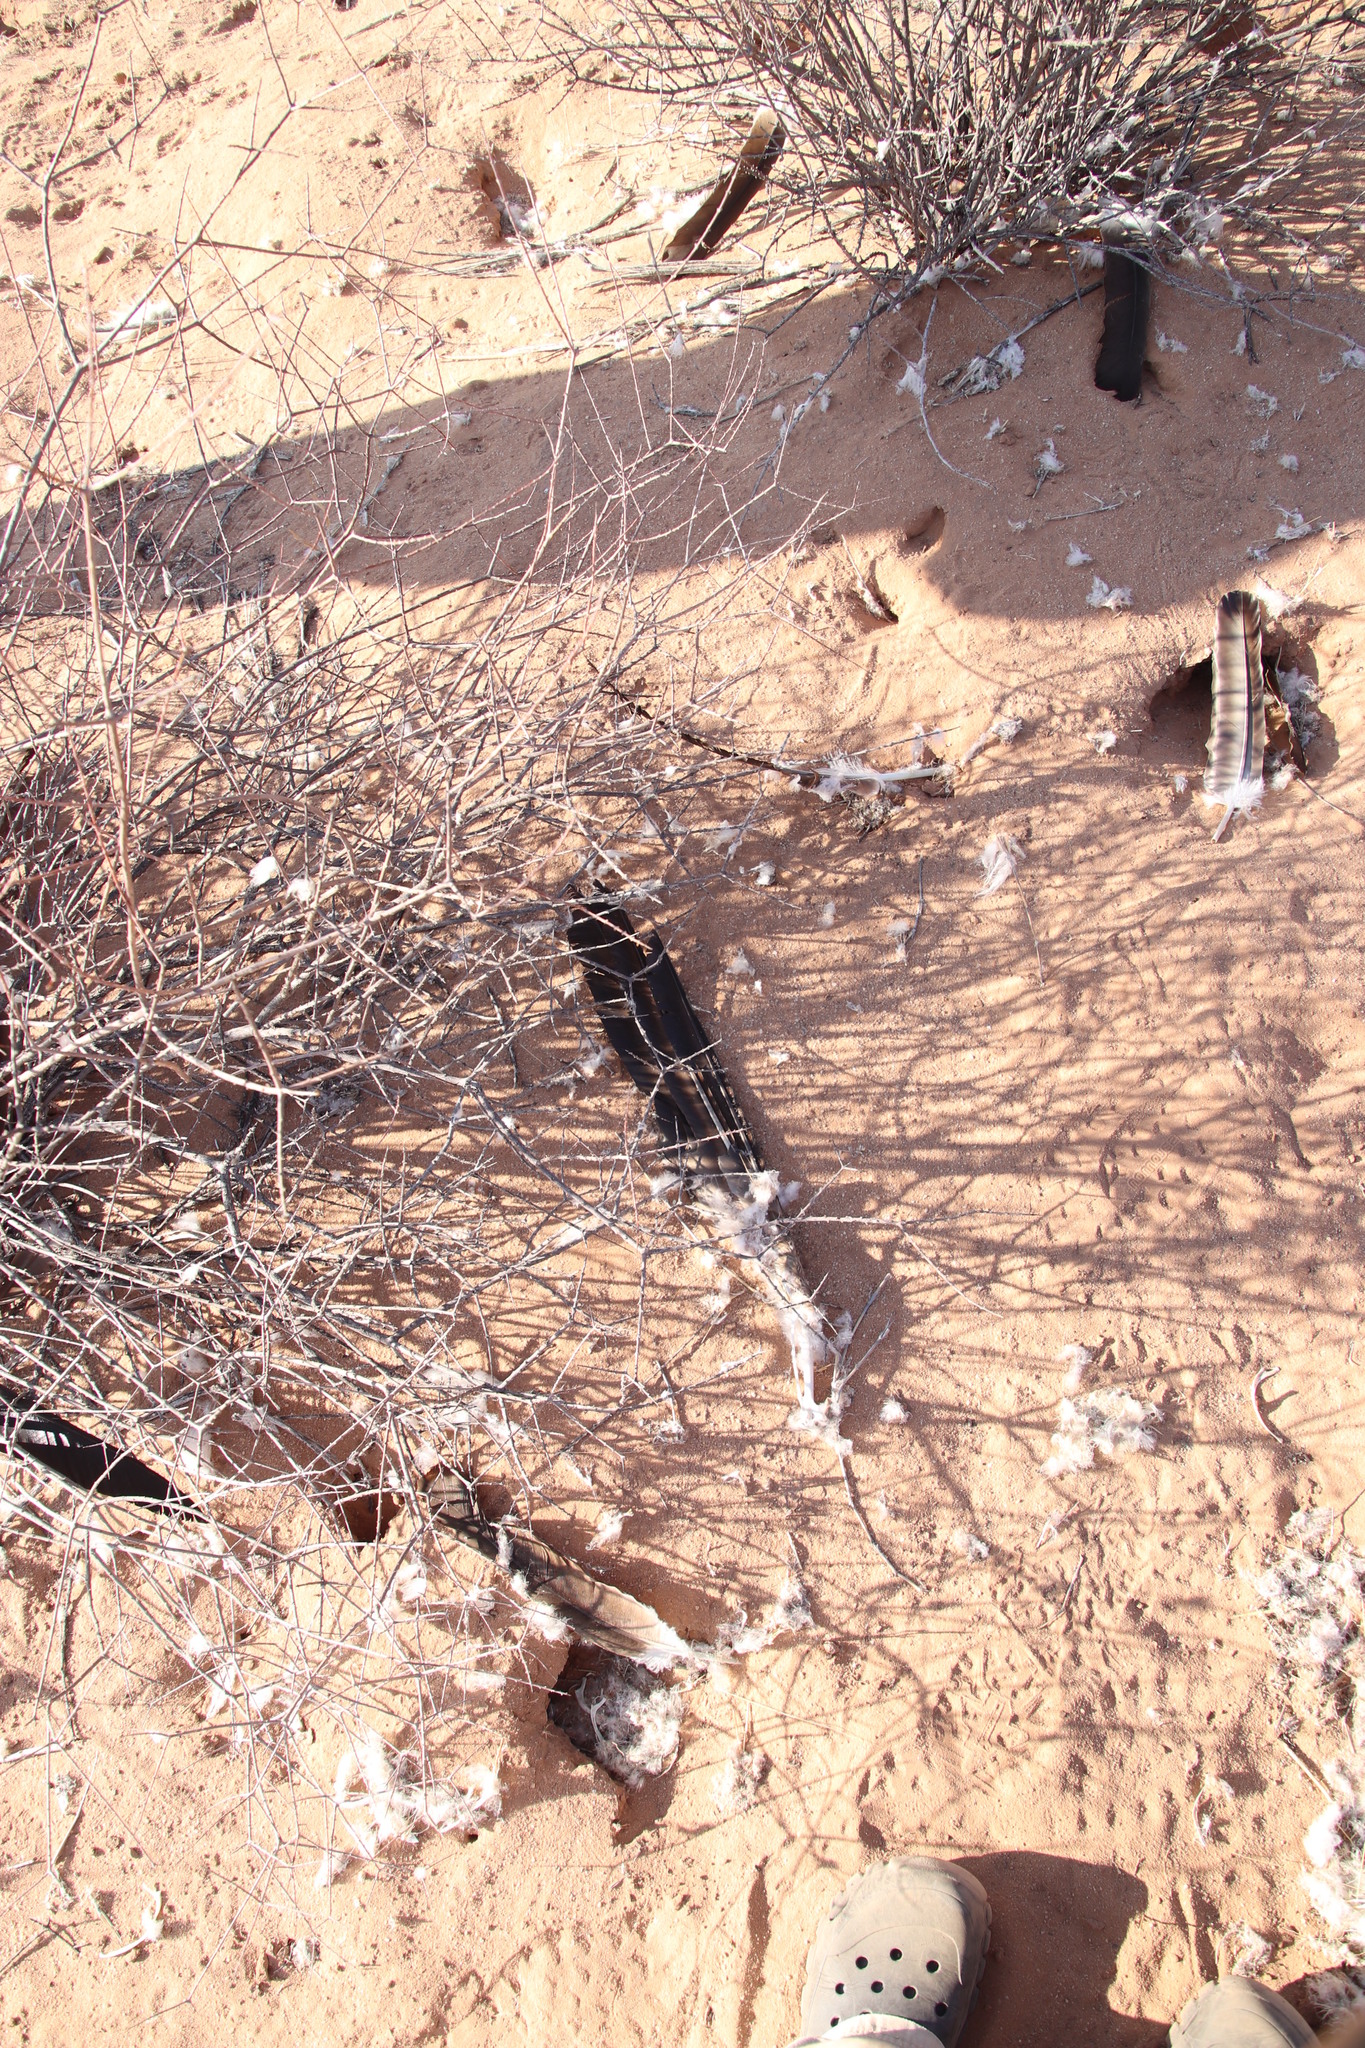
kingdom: Animalia
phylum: Chordata
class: Aves
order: Accipitriformes
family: Accipitridae
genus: Gyps
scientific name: Gyps africanus
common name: White-backed vulture
